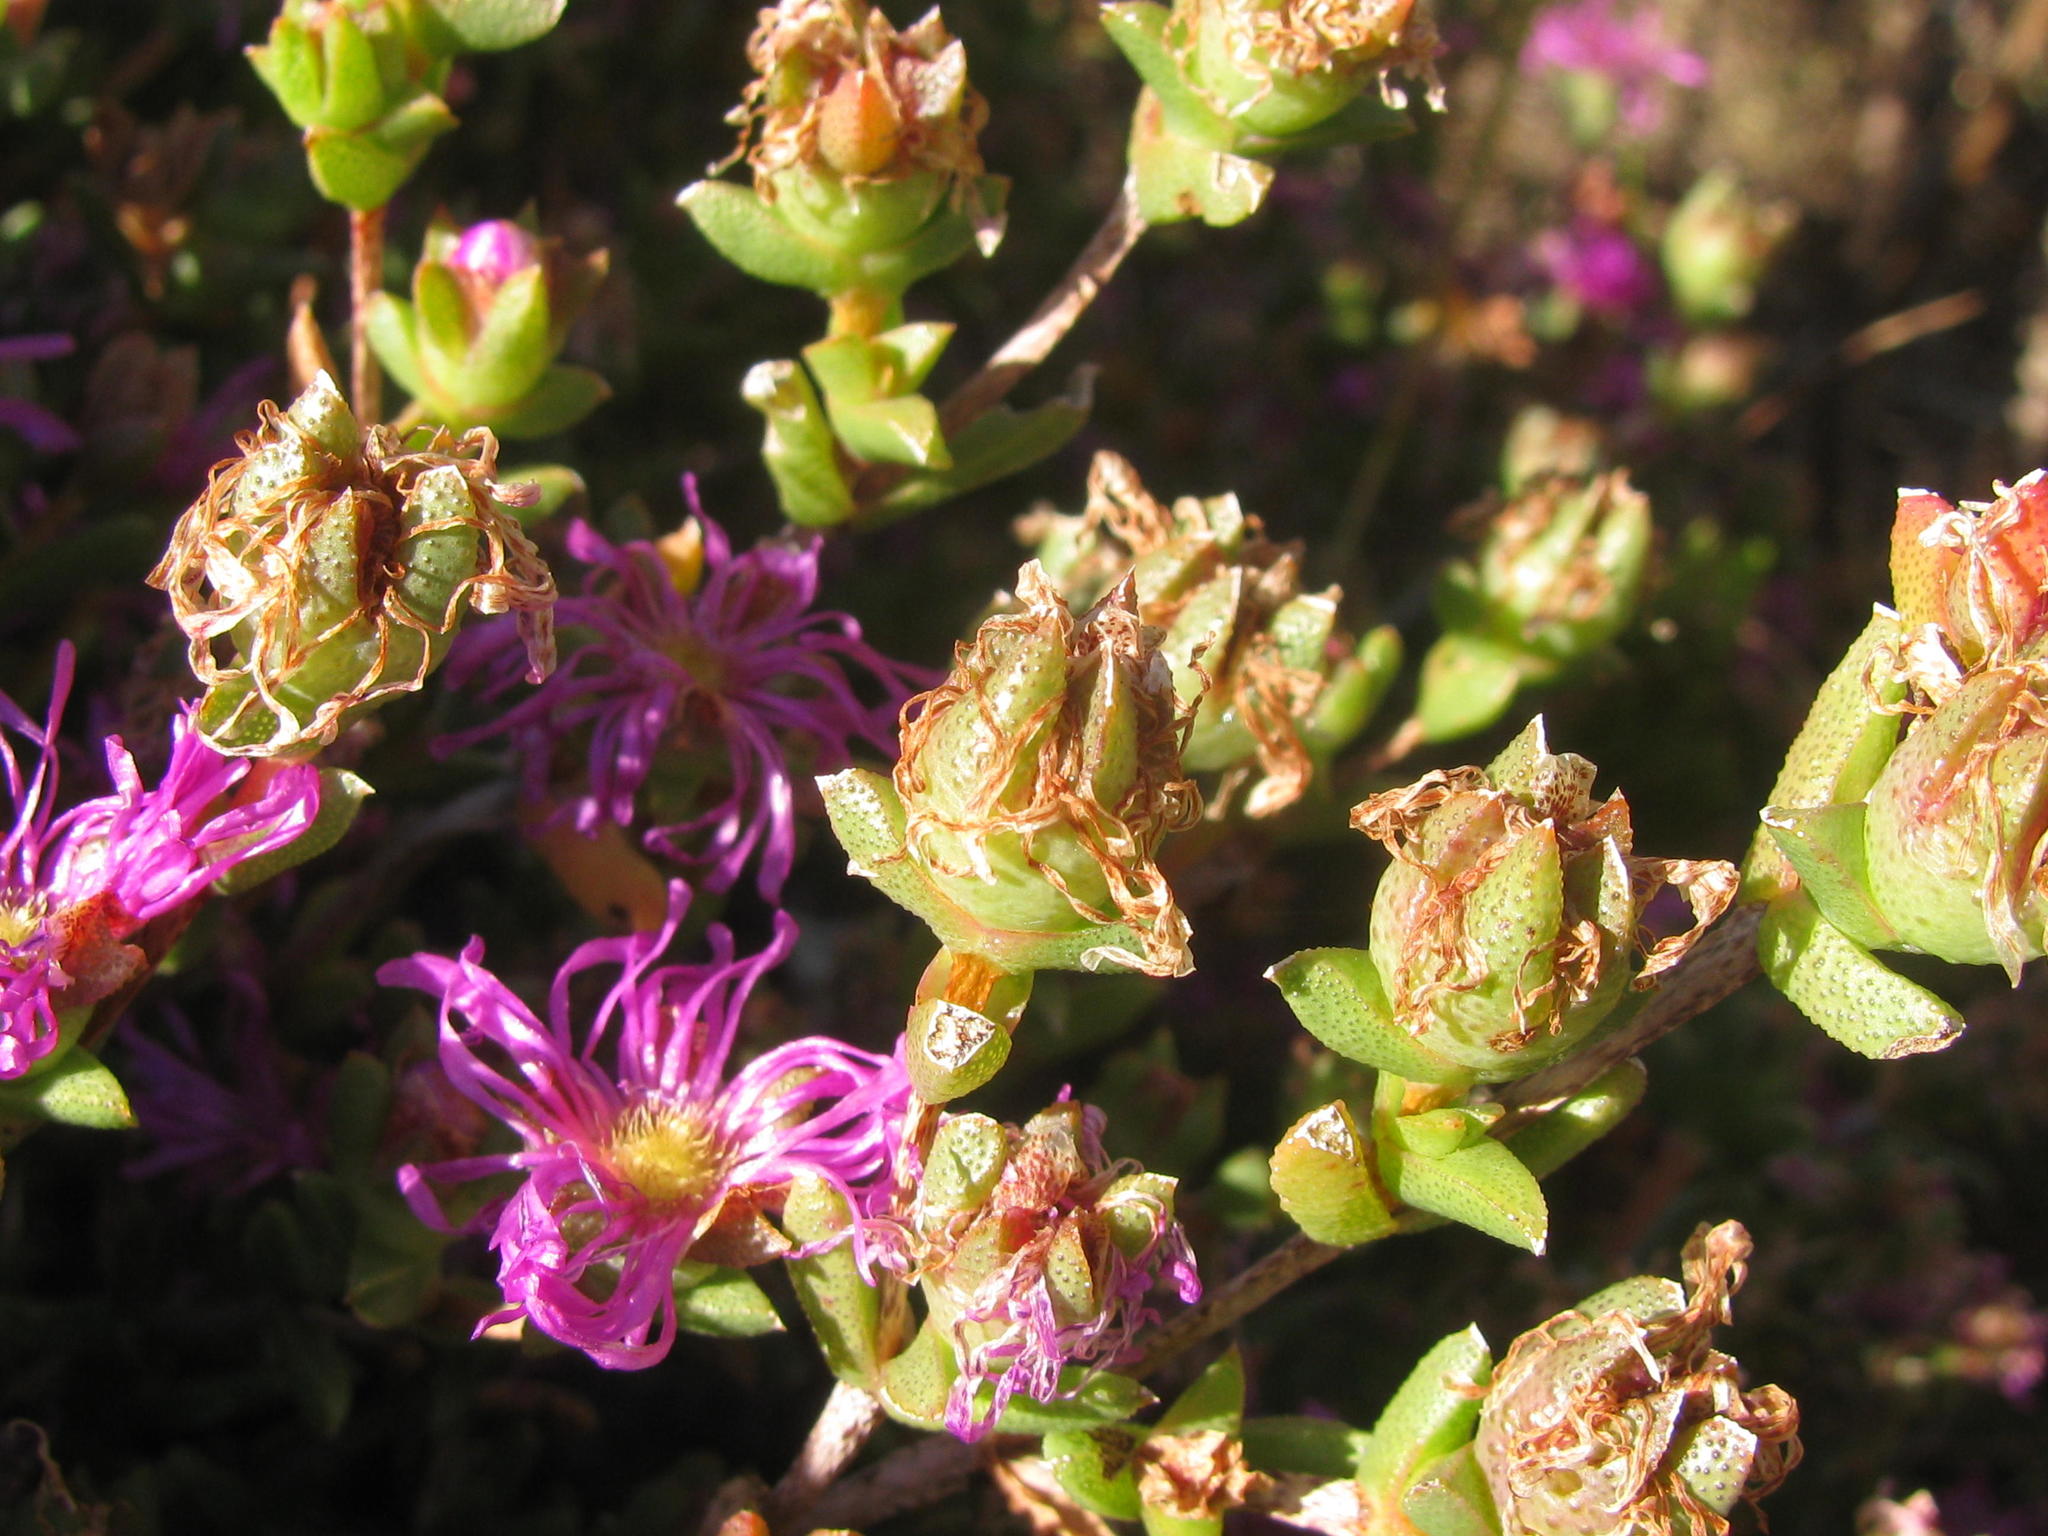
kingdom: Plantae
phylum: Tracheophyta
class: Magnoliopsida
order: Caryophyllales
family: Aizoaceae
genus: Erepsia
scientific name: Erepsia bracteata
